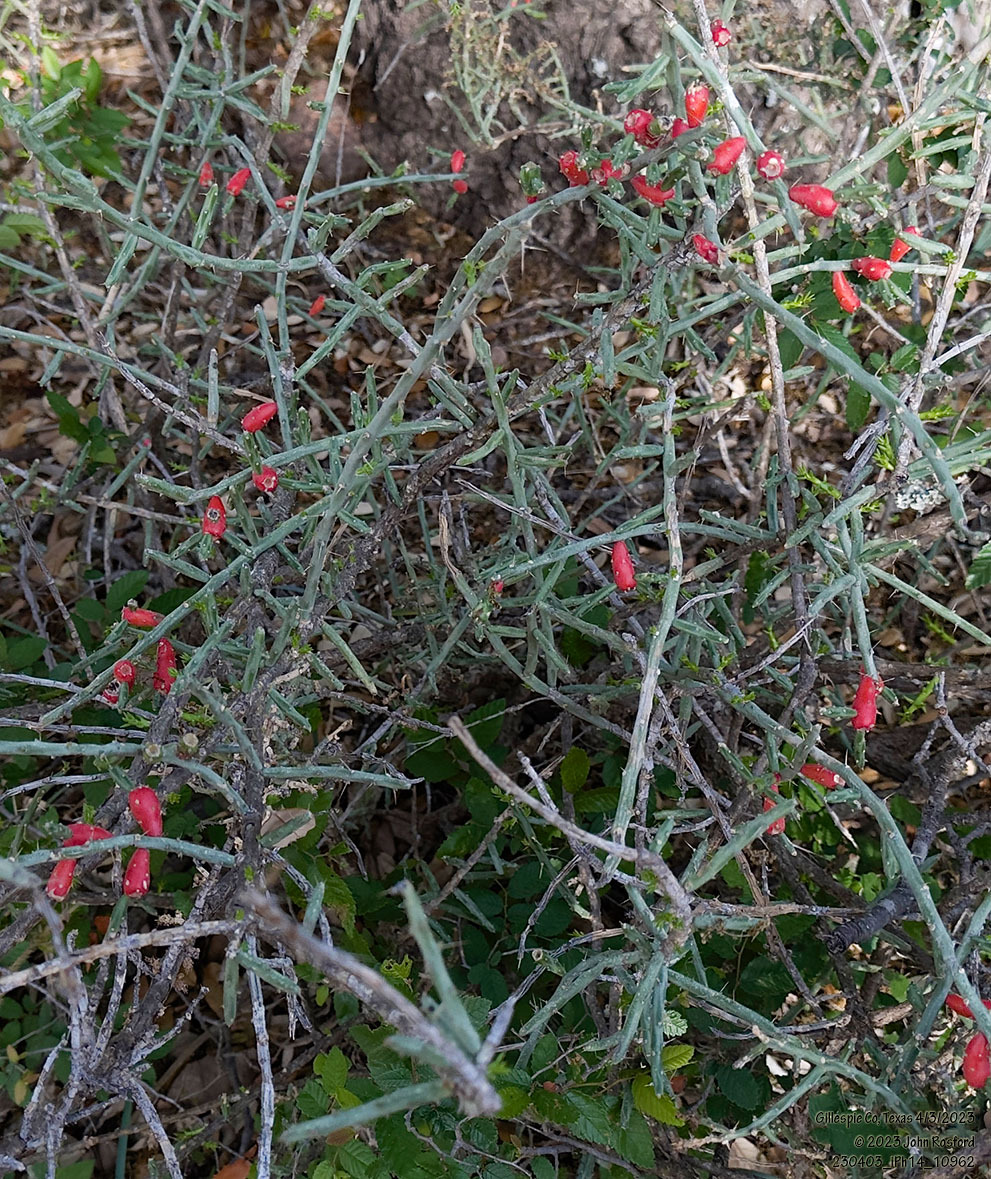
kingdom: Plantae
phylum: Tracheophyta
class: Magnoliopsida
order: Caryophyllales
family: Cactaceae
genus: Cylindropuntia
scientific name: Cylindropuntia leptocaulis
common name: Christmas cactus
